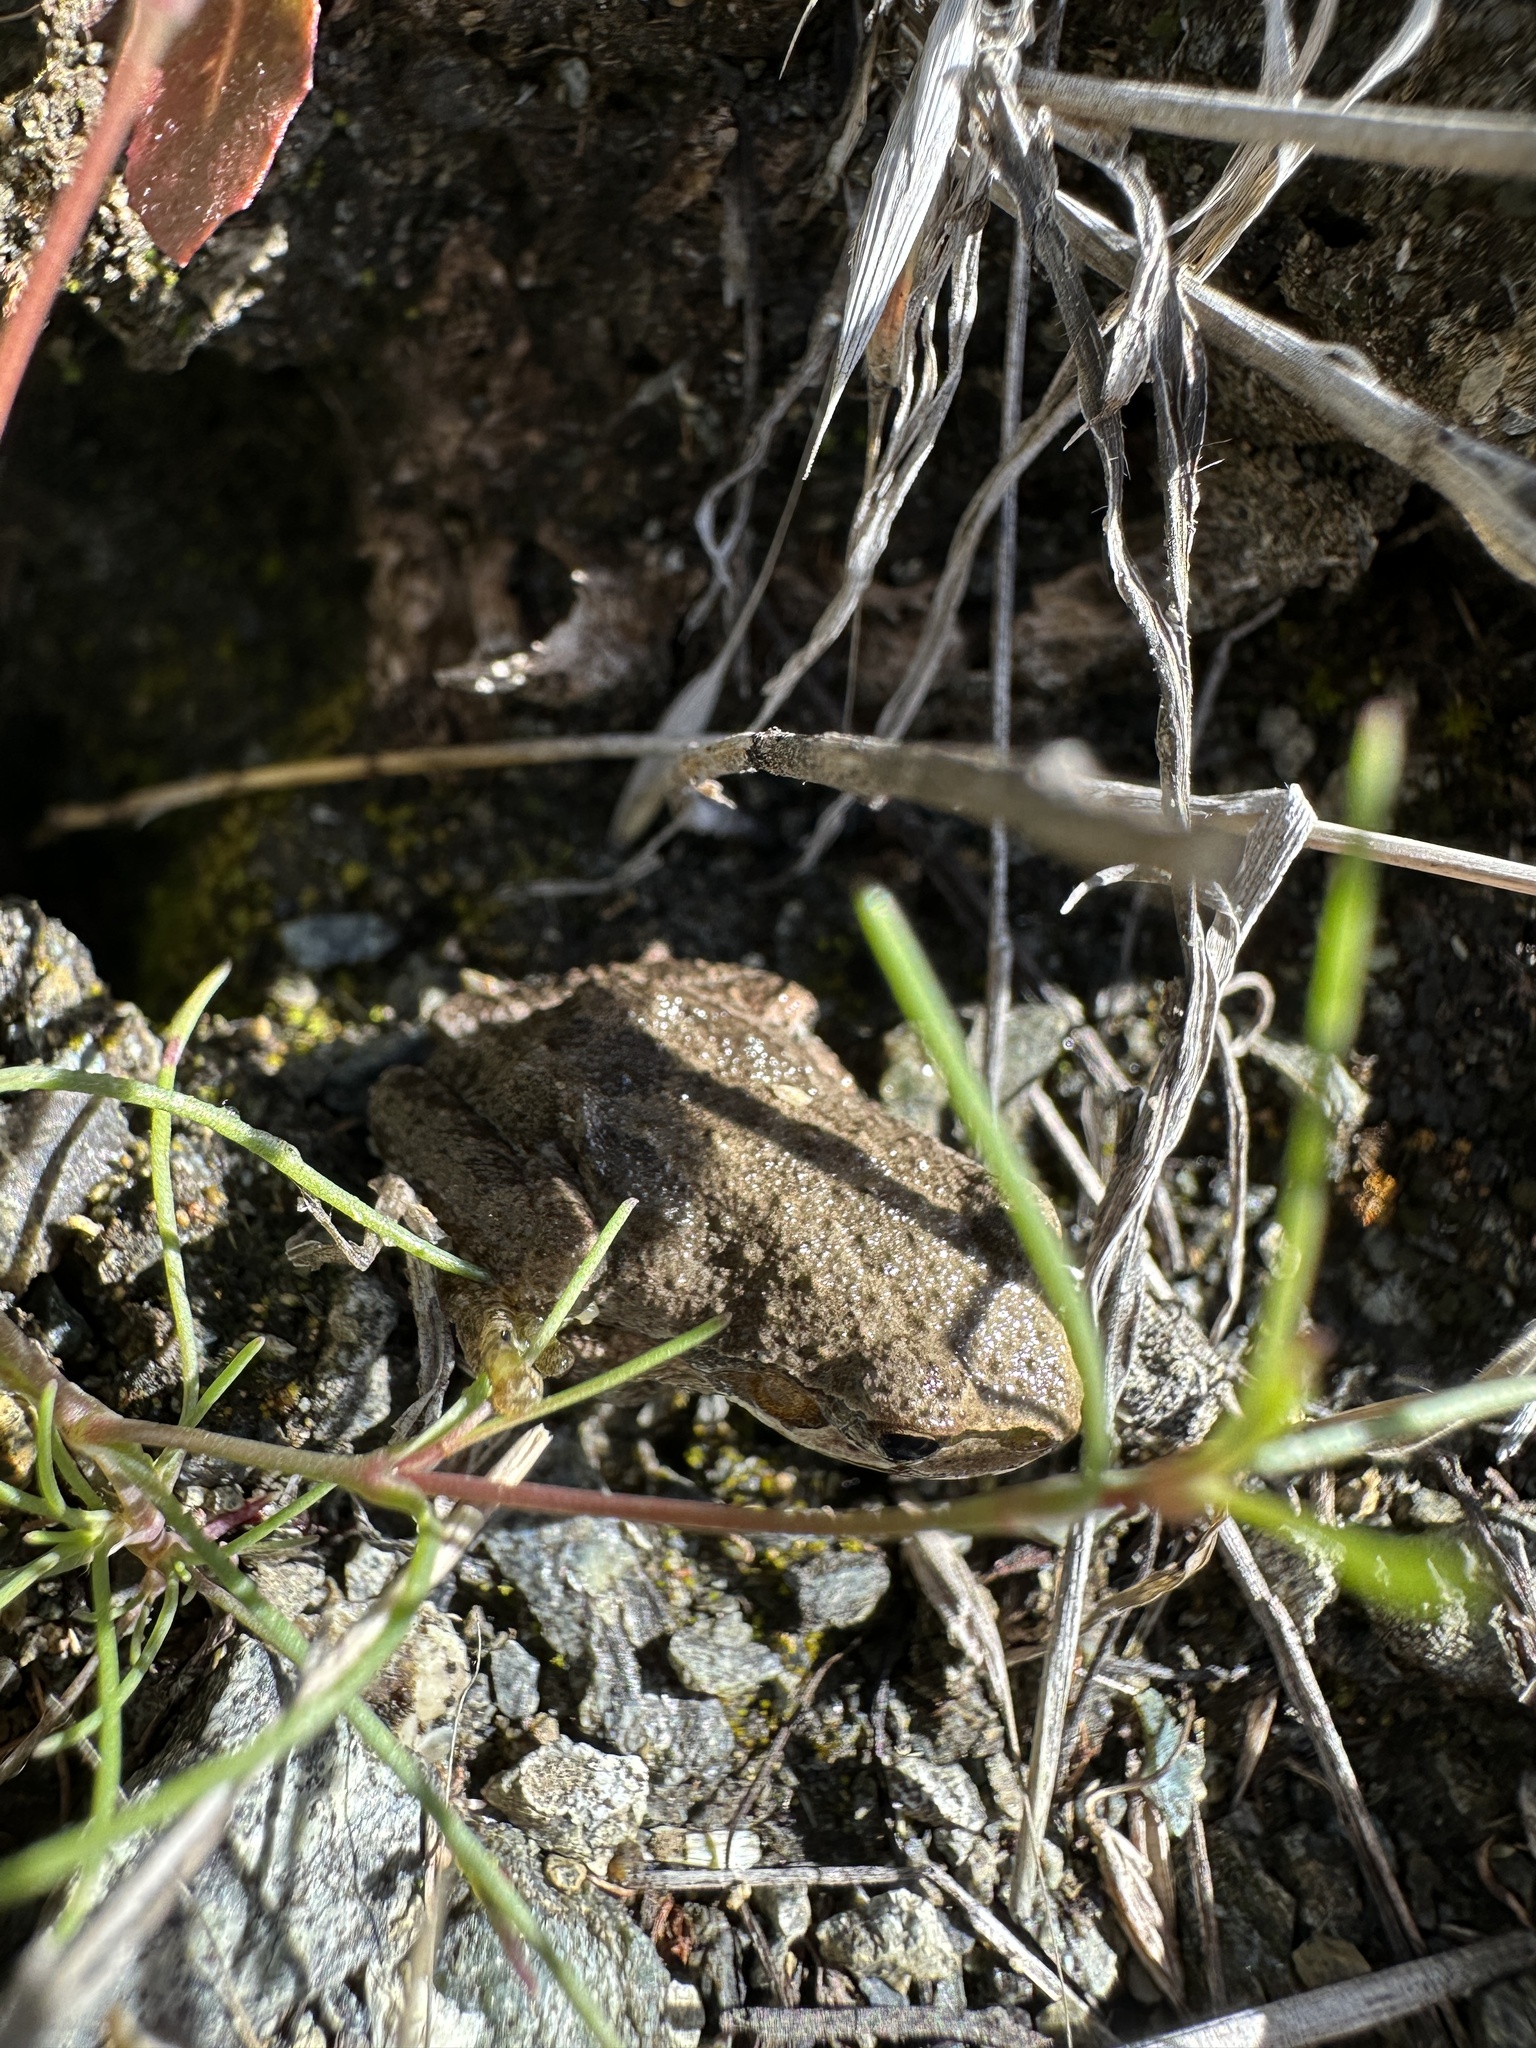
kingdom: Animalia
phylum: Chordata
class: Amphibia
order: Anura
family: Hylidae
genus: Pseudacris
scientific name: Pseudacris regilla
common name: Pacific chorus frog
